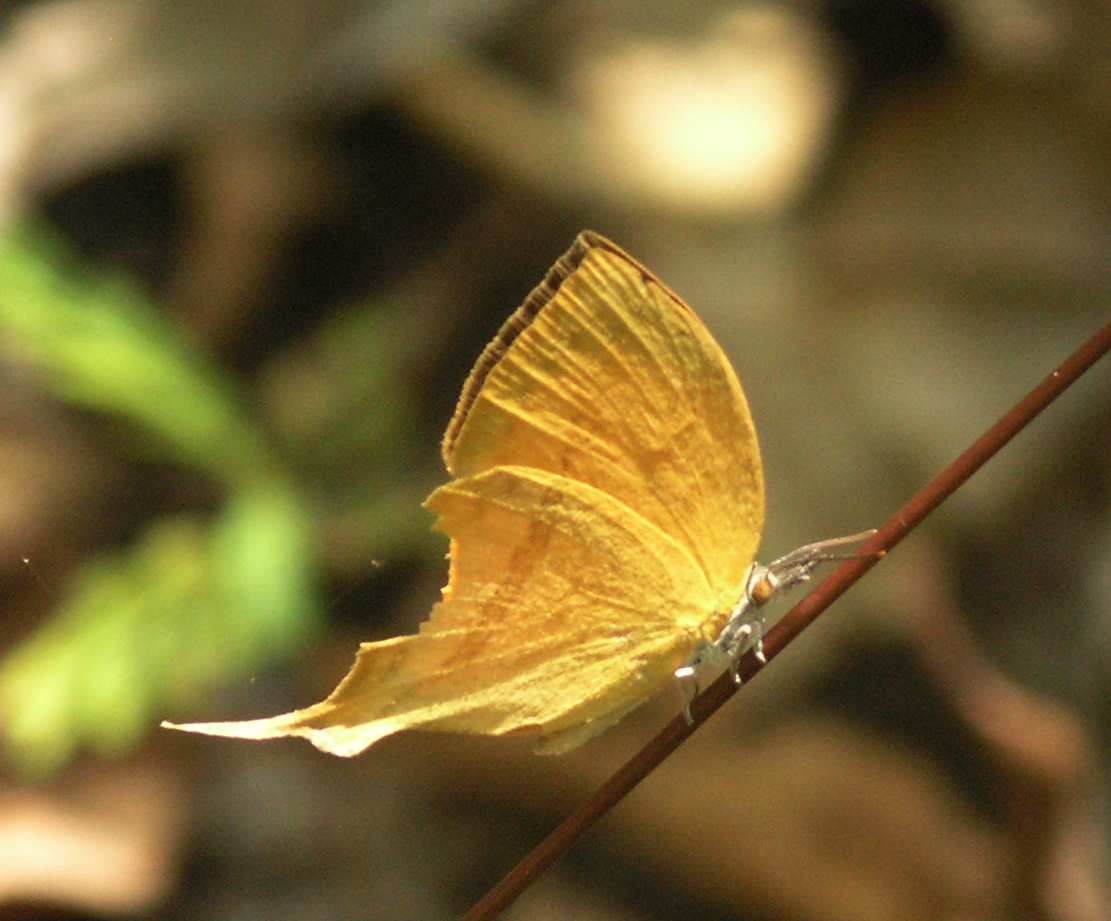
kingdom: Animalia
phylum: Arthropoda
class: Insecta
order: Lepidoptera
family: Lycaenidae
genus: Loxura
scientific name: Loxura atymnus
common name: Common yamfly
